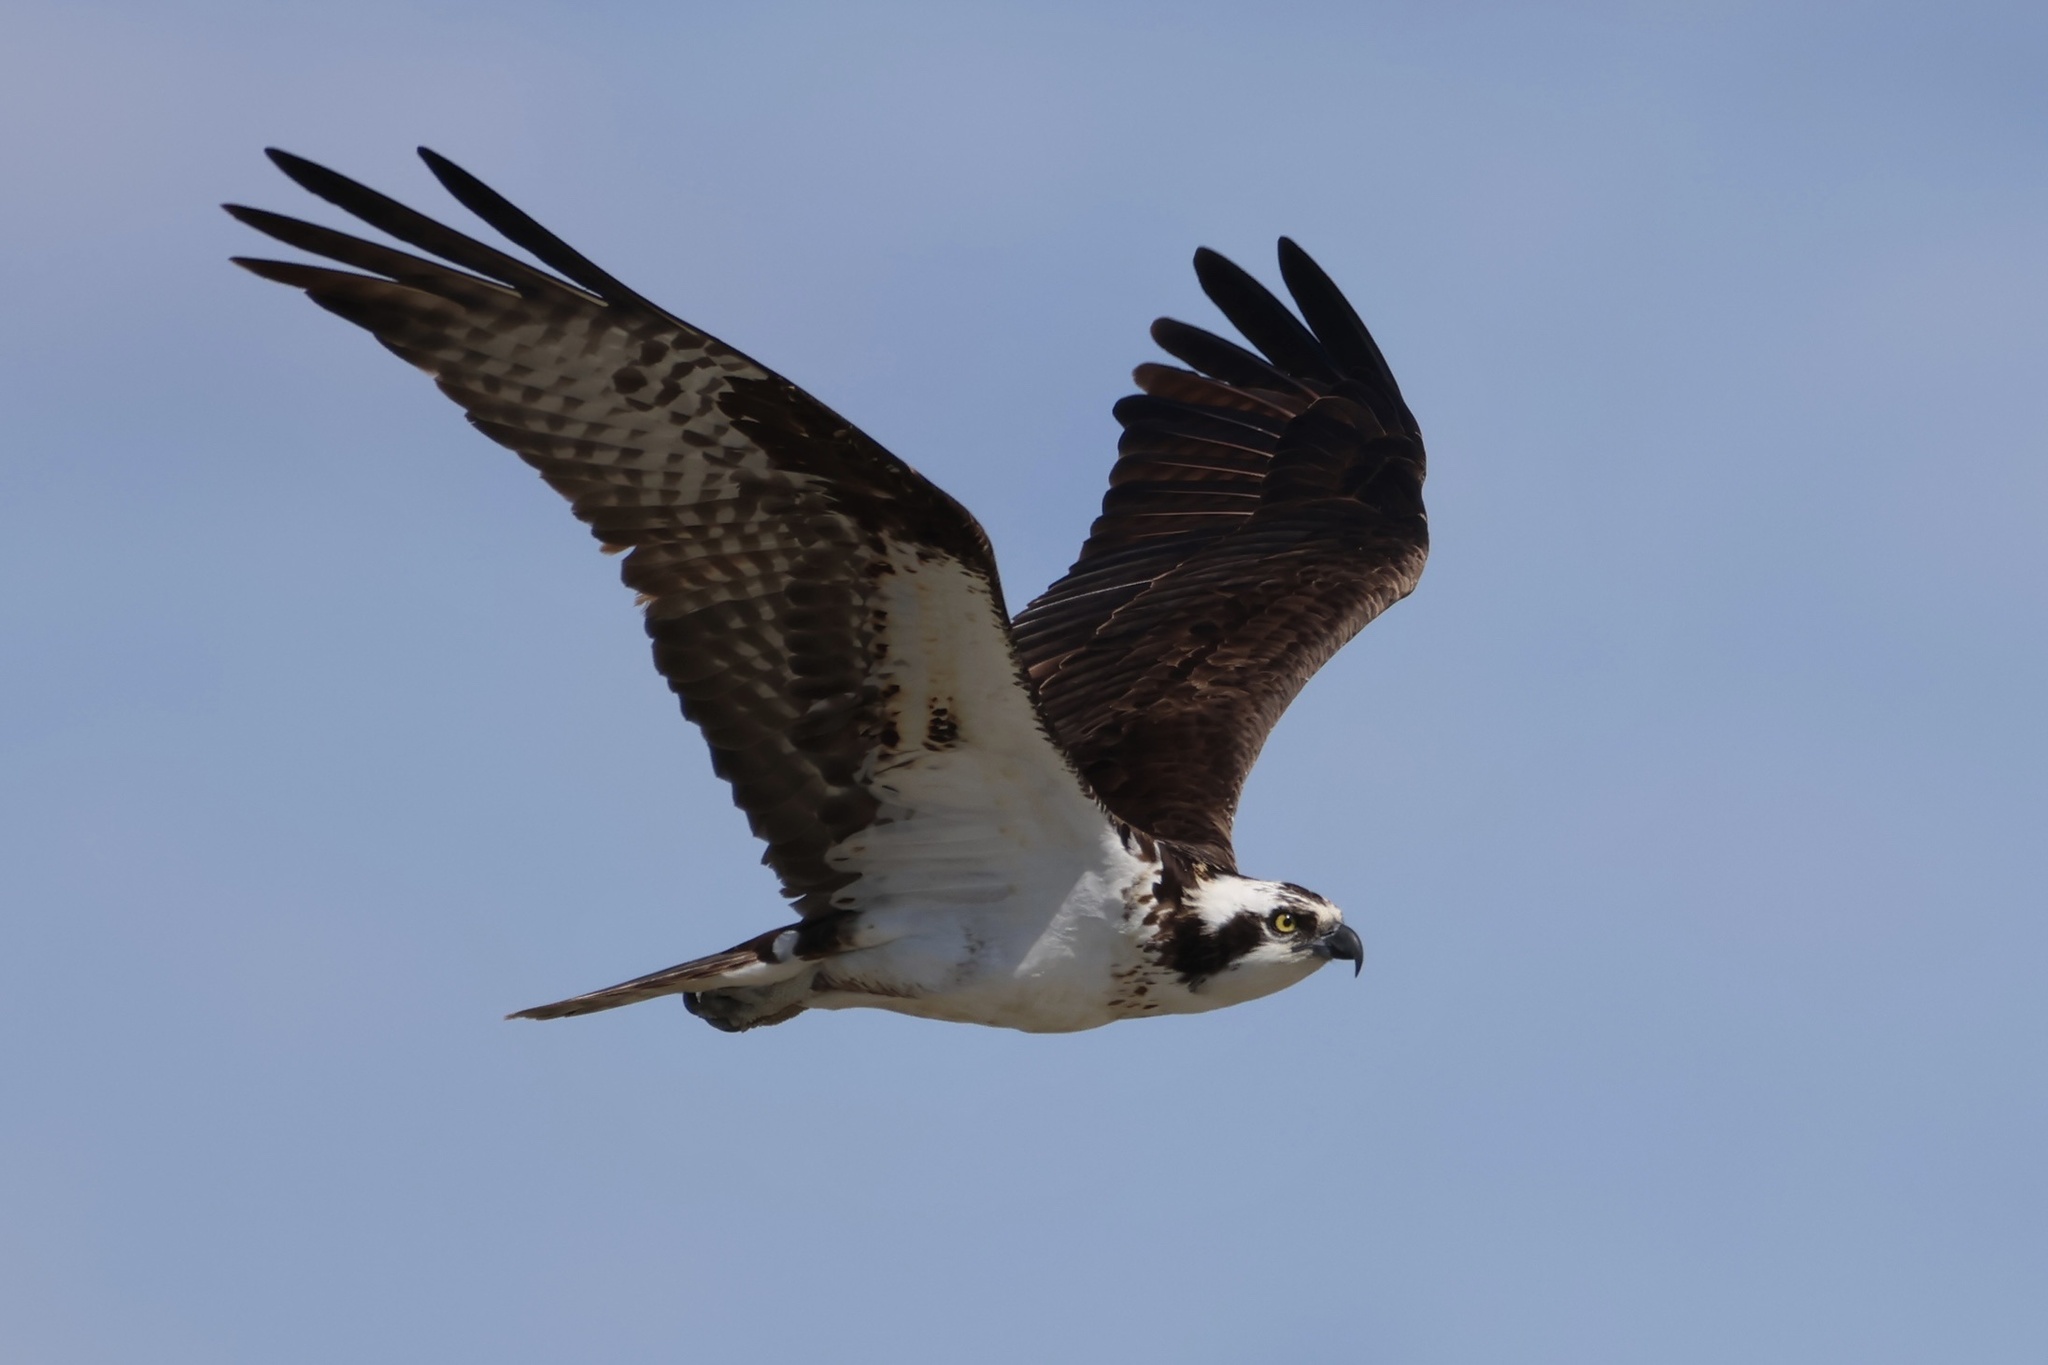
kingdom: Animalia
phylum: Chordata
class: Aves
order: Accipitriformes
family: Pandionidae
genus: Pandion
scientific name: Pandion haliaetus
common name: Osprey
